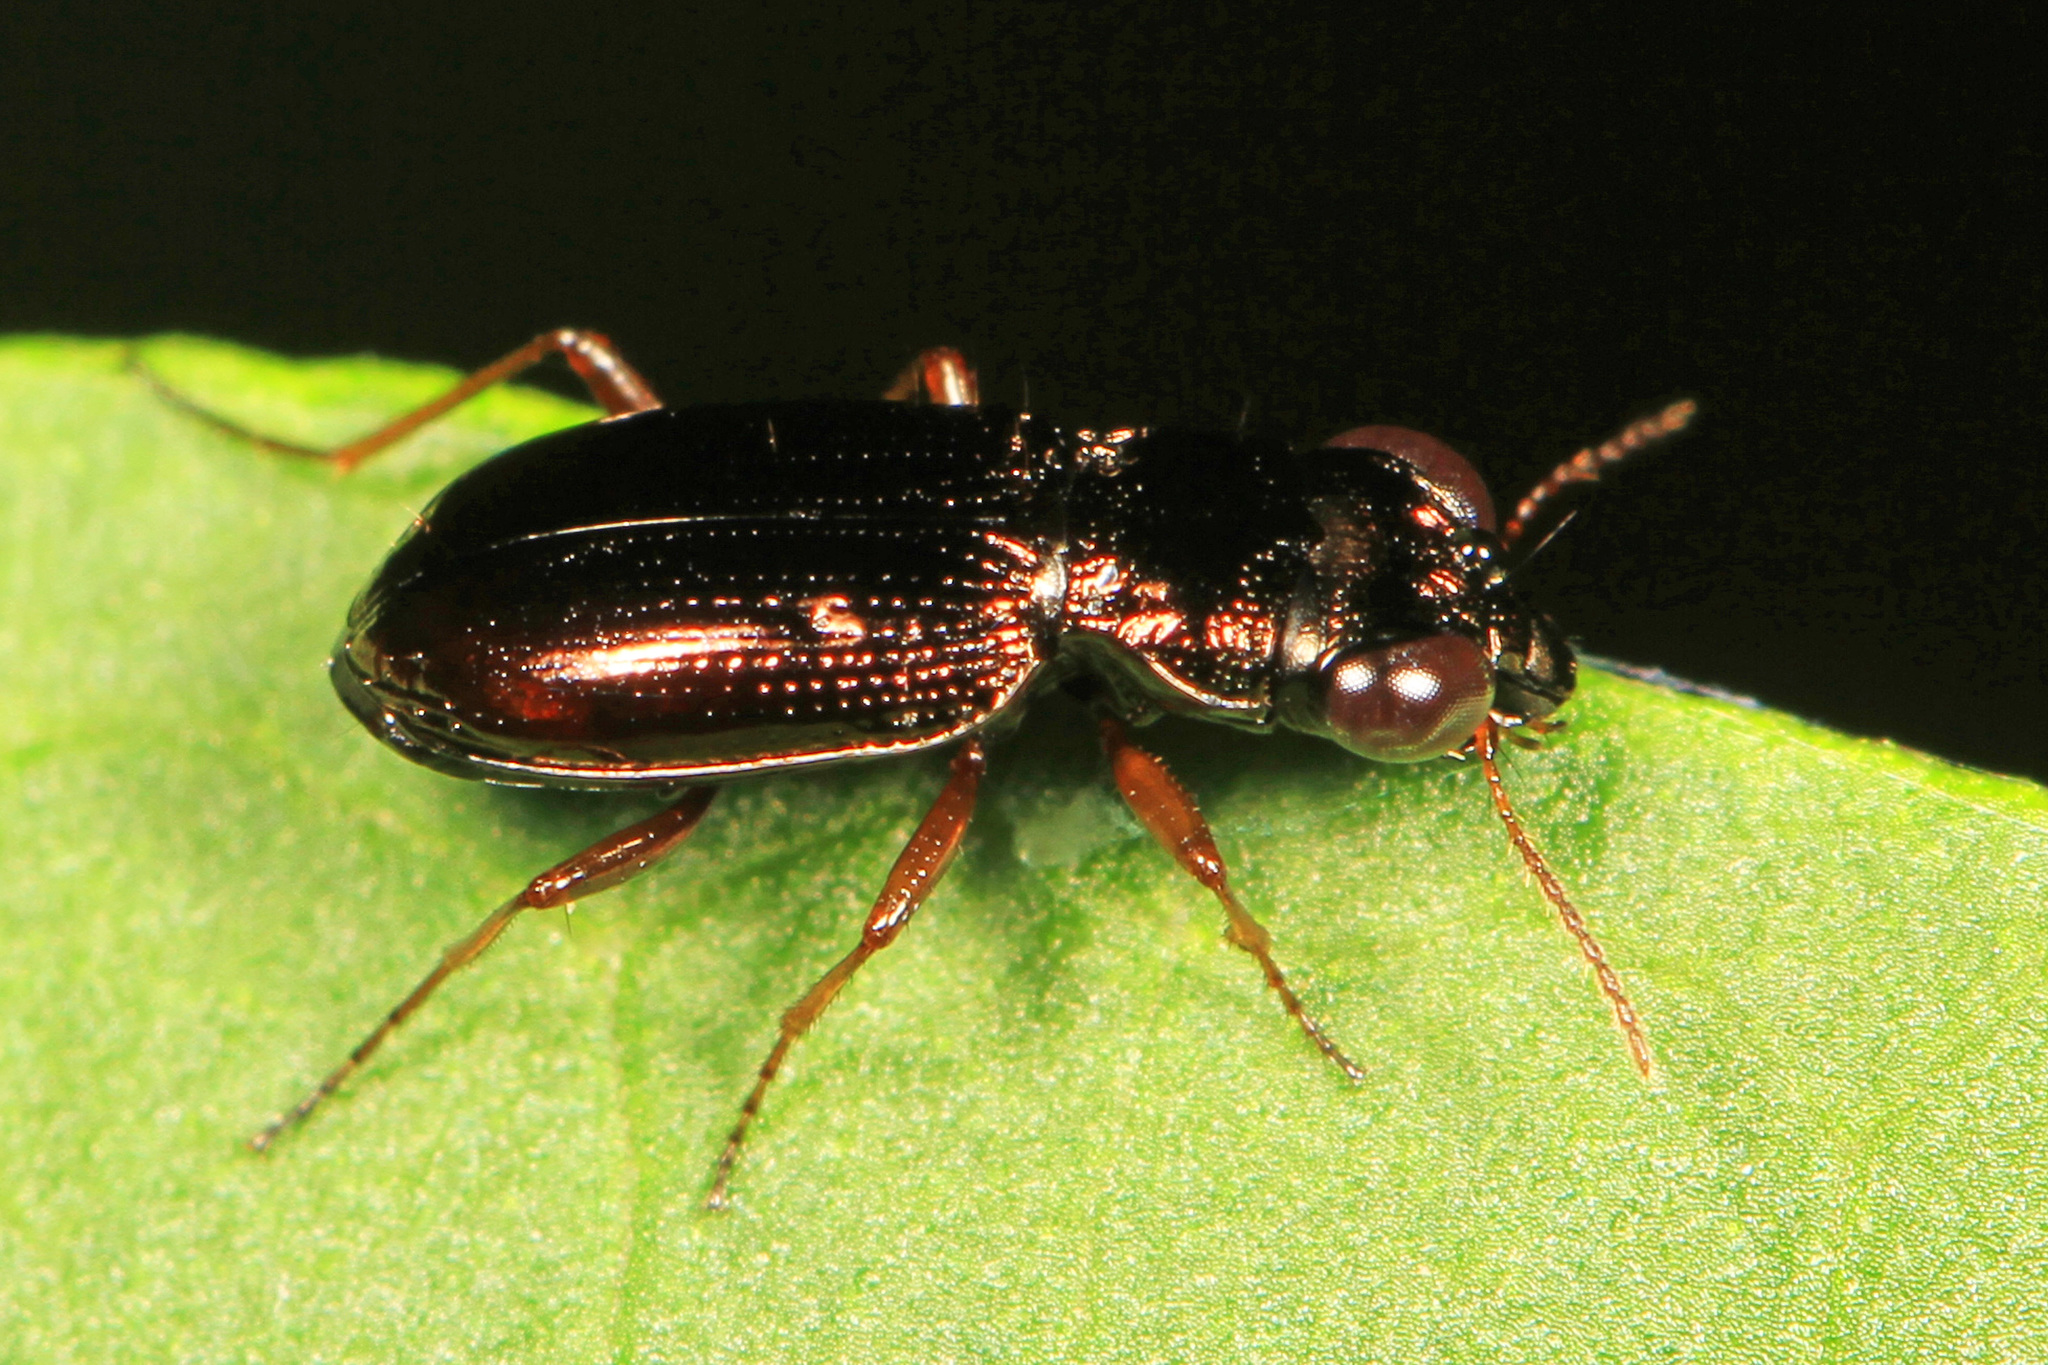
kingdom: Animalia
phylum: Arthropoda
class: Insecta
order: Coleoptera
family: Carabidae
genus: Notiophilus
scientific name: Notiophilus aeneus
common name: Brassy big-eyed beetle
